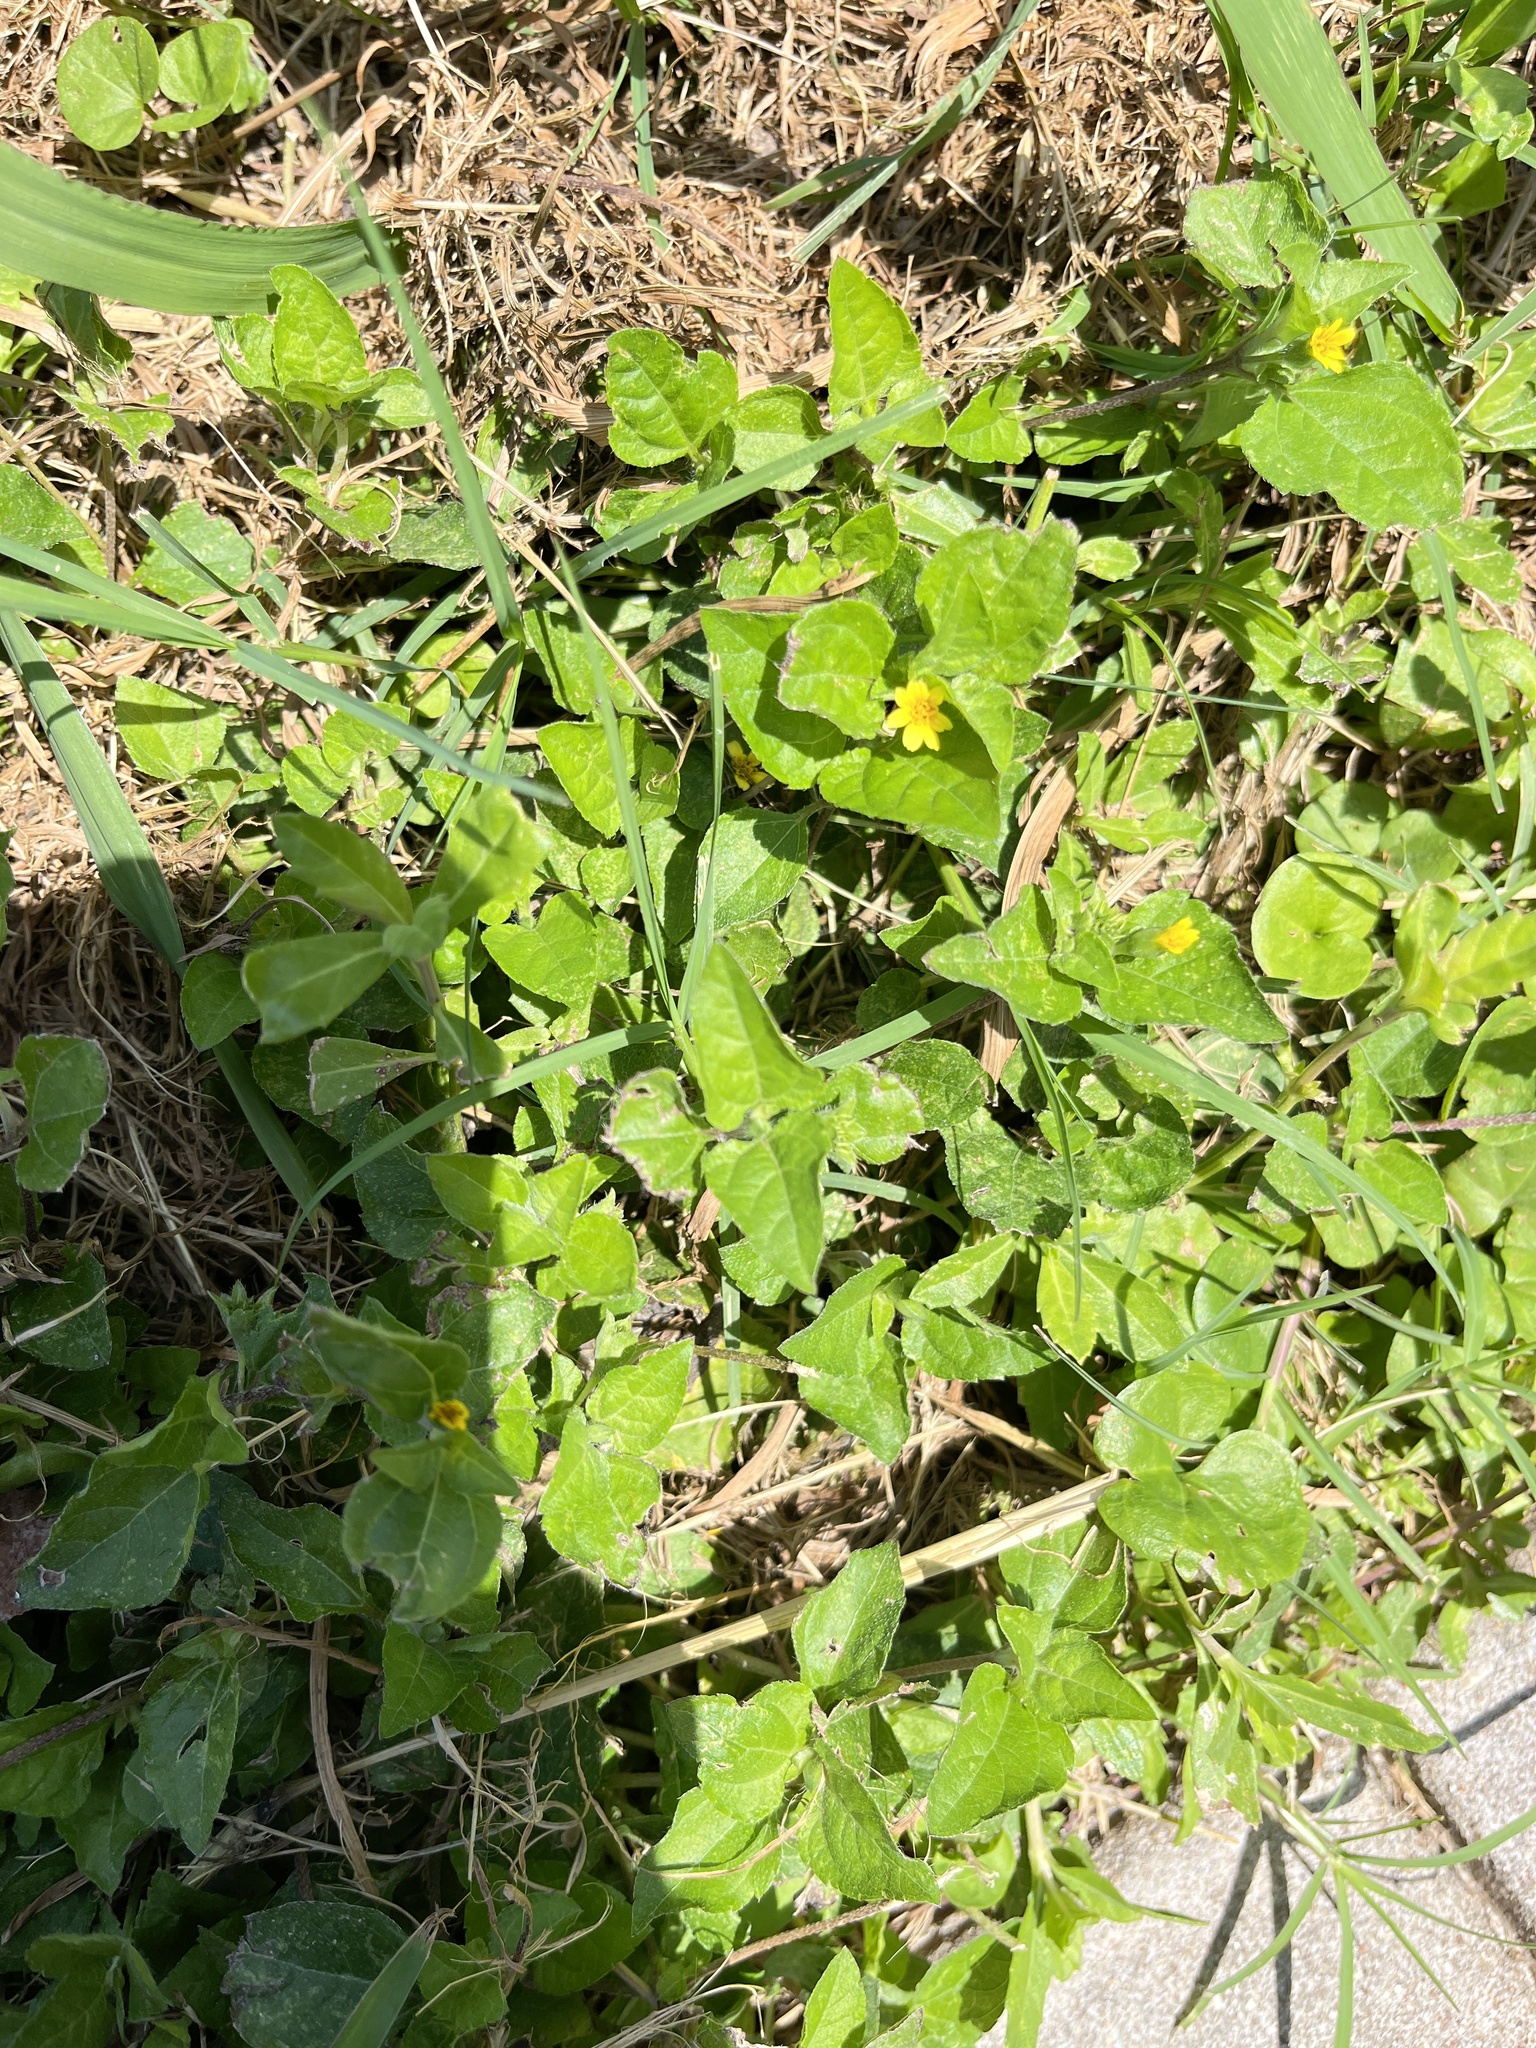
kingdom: Plantae
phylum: Tracheophyta
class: Magnoliopsida
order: Asterales
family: Asteraceae
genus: Calyptocarpus
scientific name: Calyptocarpus vialis
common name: Straggler daisy
